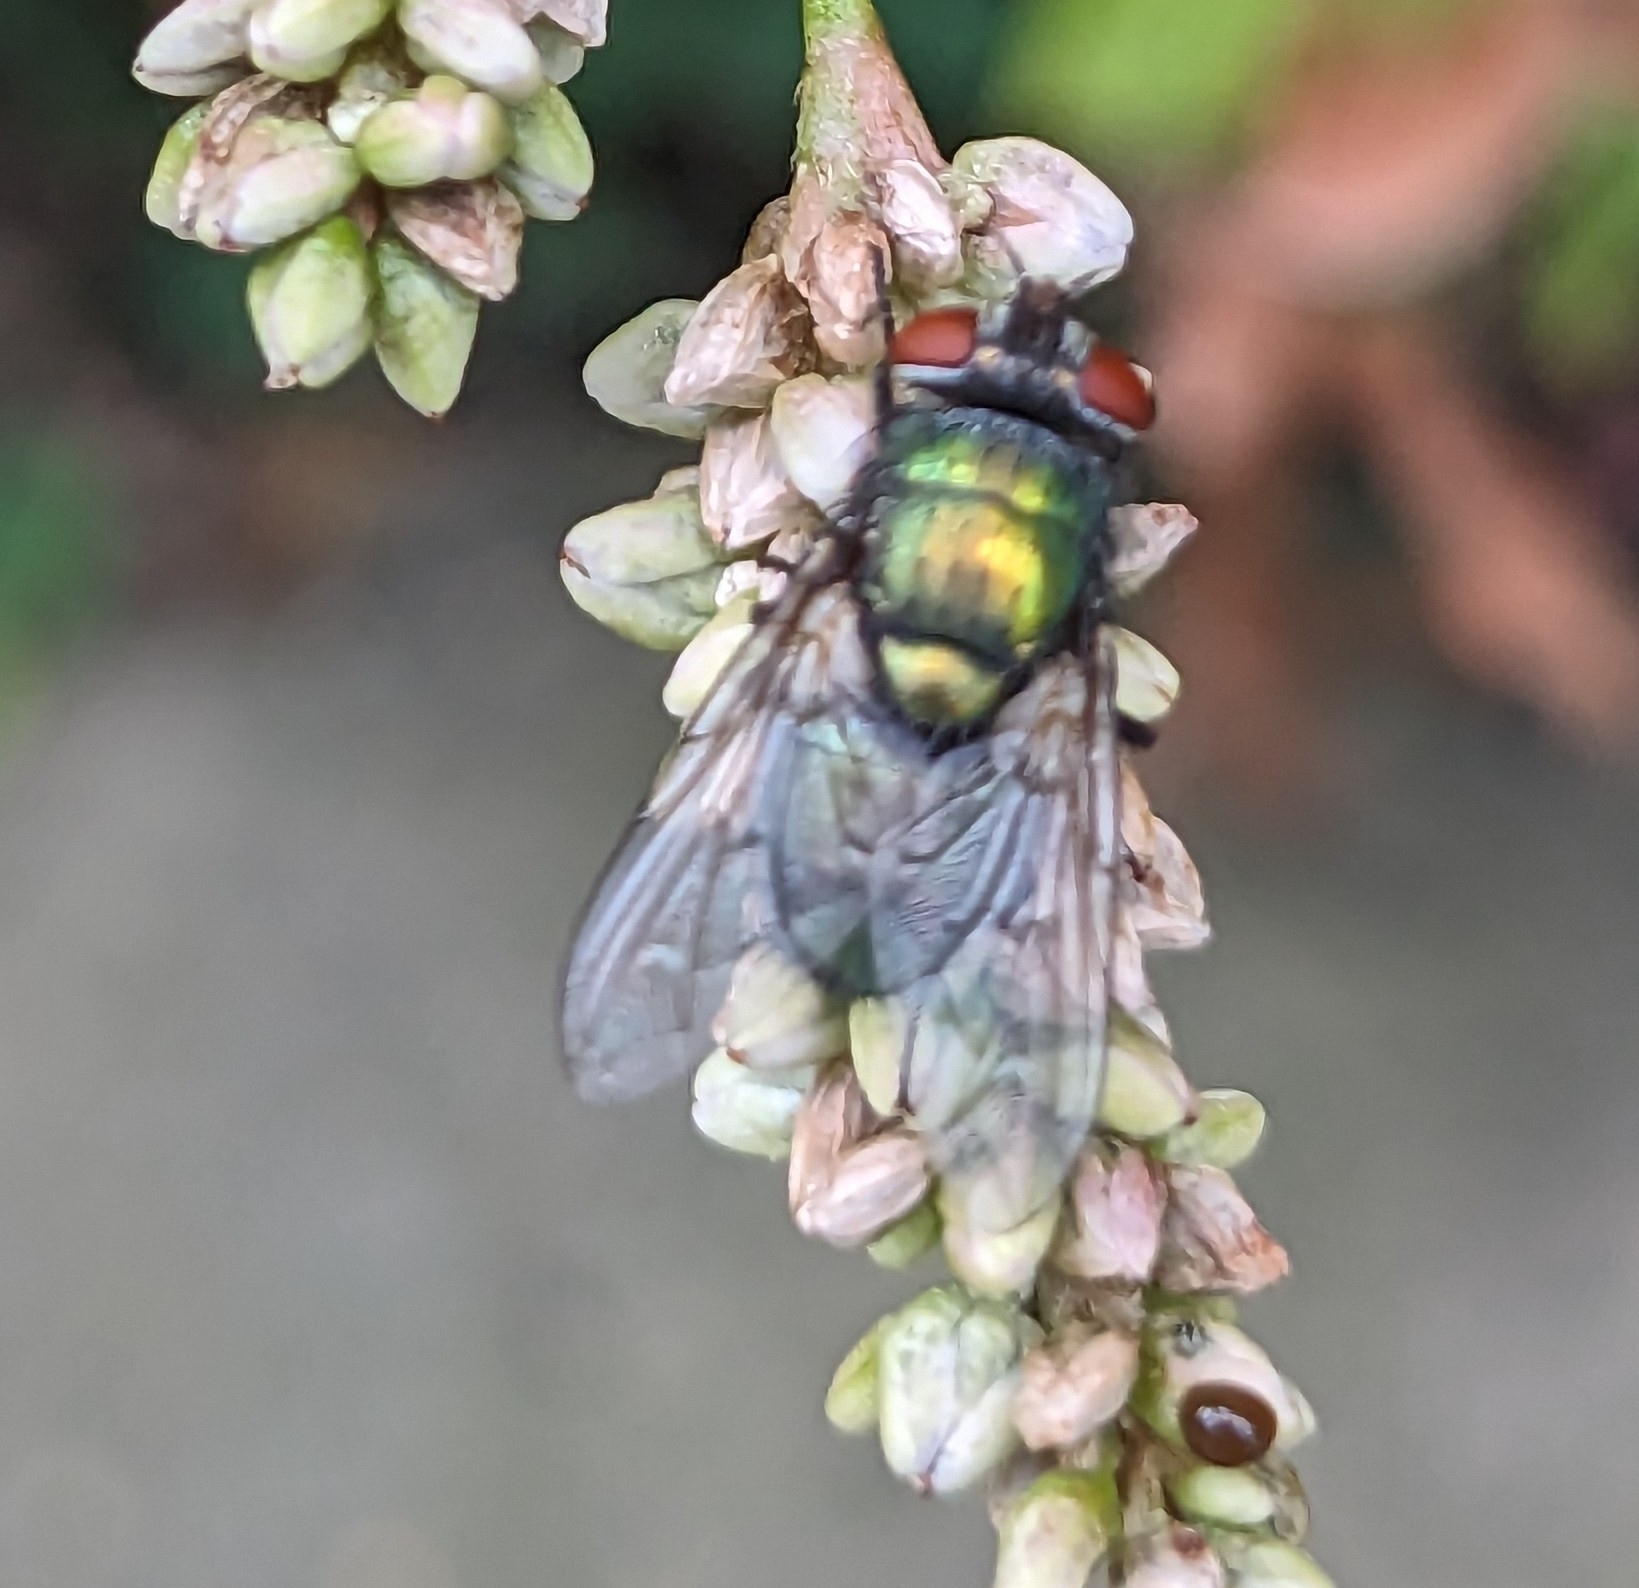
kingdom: Animalia
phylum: Arthropoda
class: Insecta
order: Diptera
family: Calliphoridae
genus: Lucilia
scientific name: Lucilia sericata
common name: Blow fly
